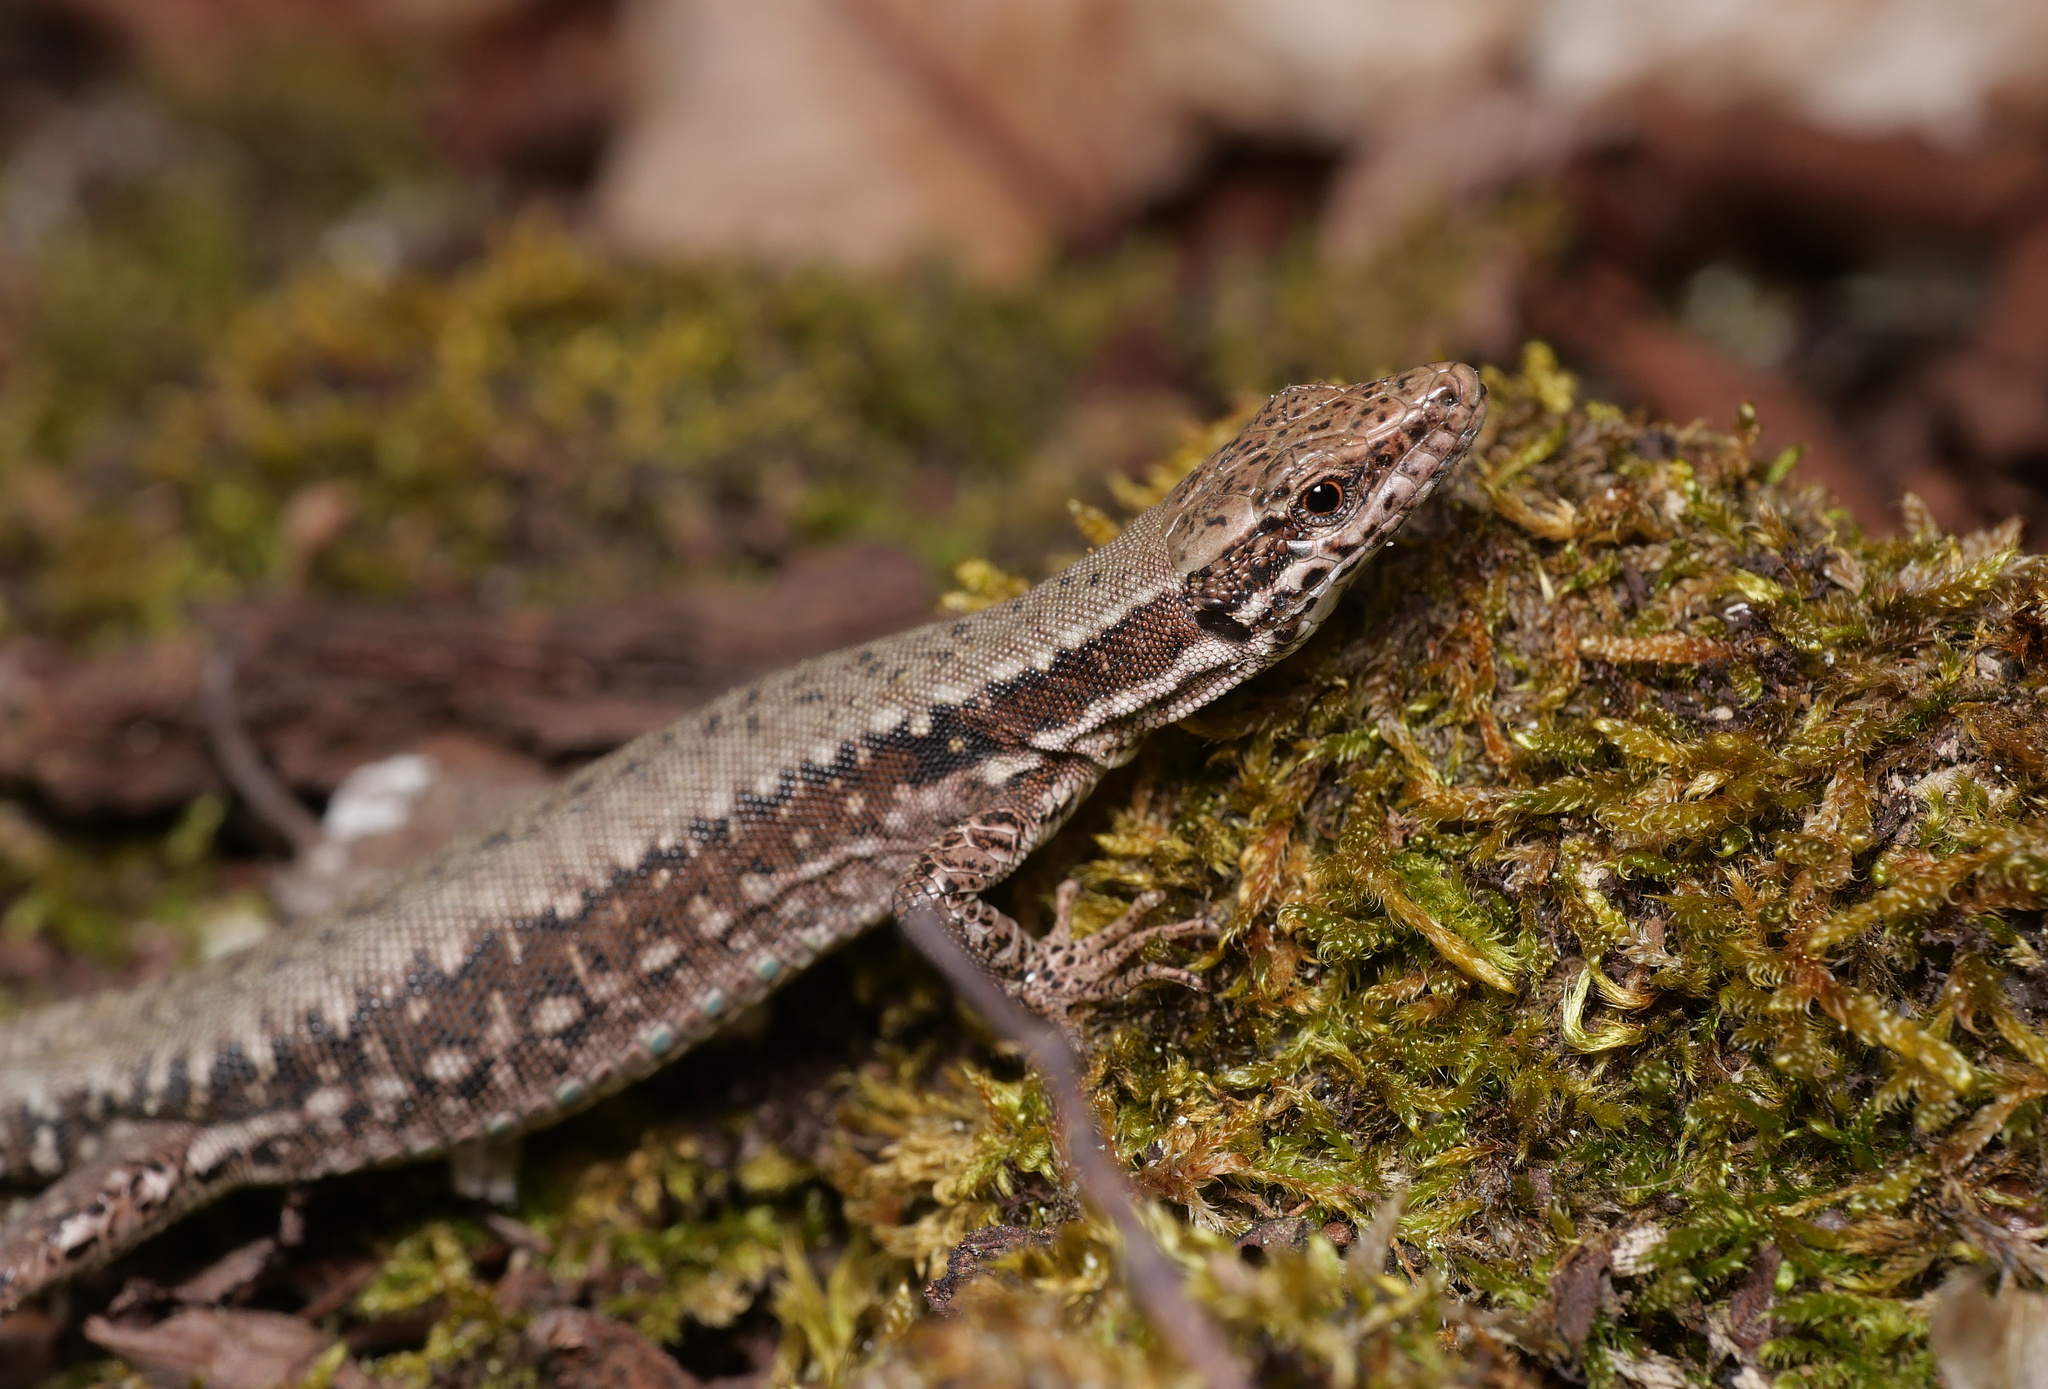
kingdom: Animalia
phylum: Chordata
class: Squamata
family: Lacertidae
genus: Podarcis
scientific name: Podarcis muralis
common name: Common wall lizard
